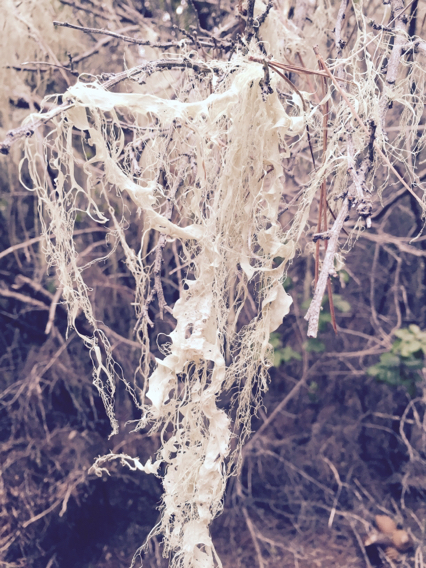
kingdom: Fungi
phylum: Ascomycota
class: Lecanoromycetes
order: Lecanorales
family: Ramalinaceae
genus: Ramalina
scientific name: Ramalina menziesii
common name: Lace lichen
